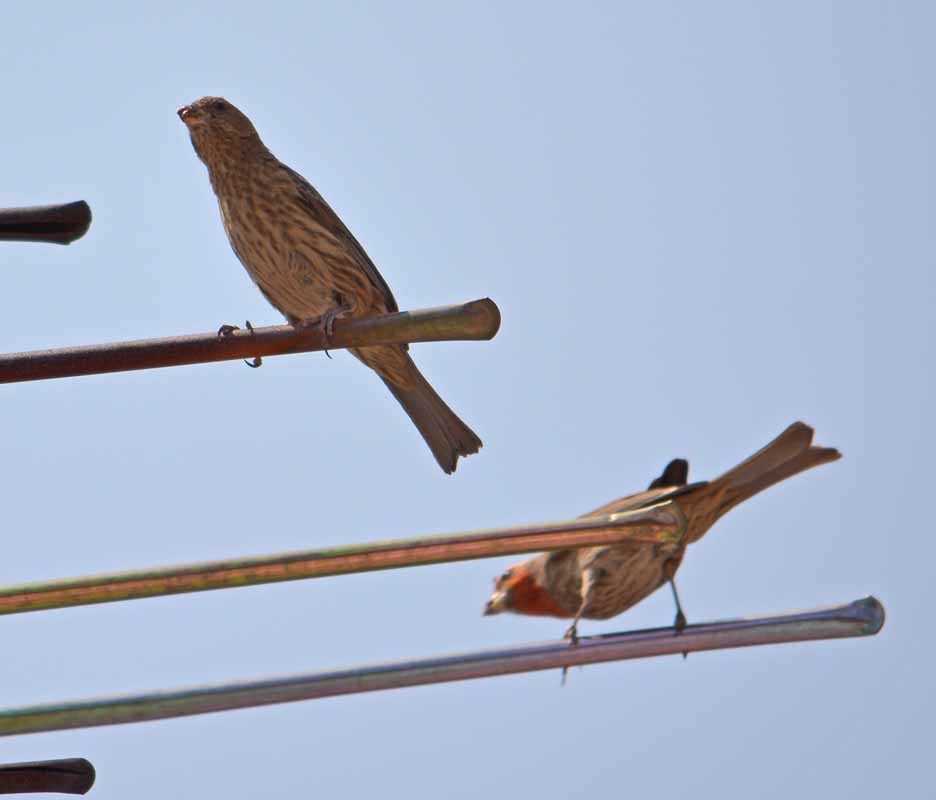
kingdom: Animalia
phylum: Chordata
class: Aves
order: Passeriformes
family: Fringillidae
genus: Haemorhous
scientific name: Haemorhous mexicanus
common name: House finch
